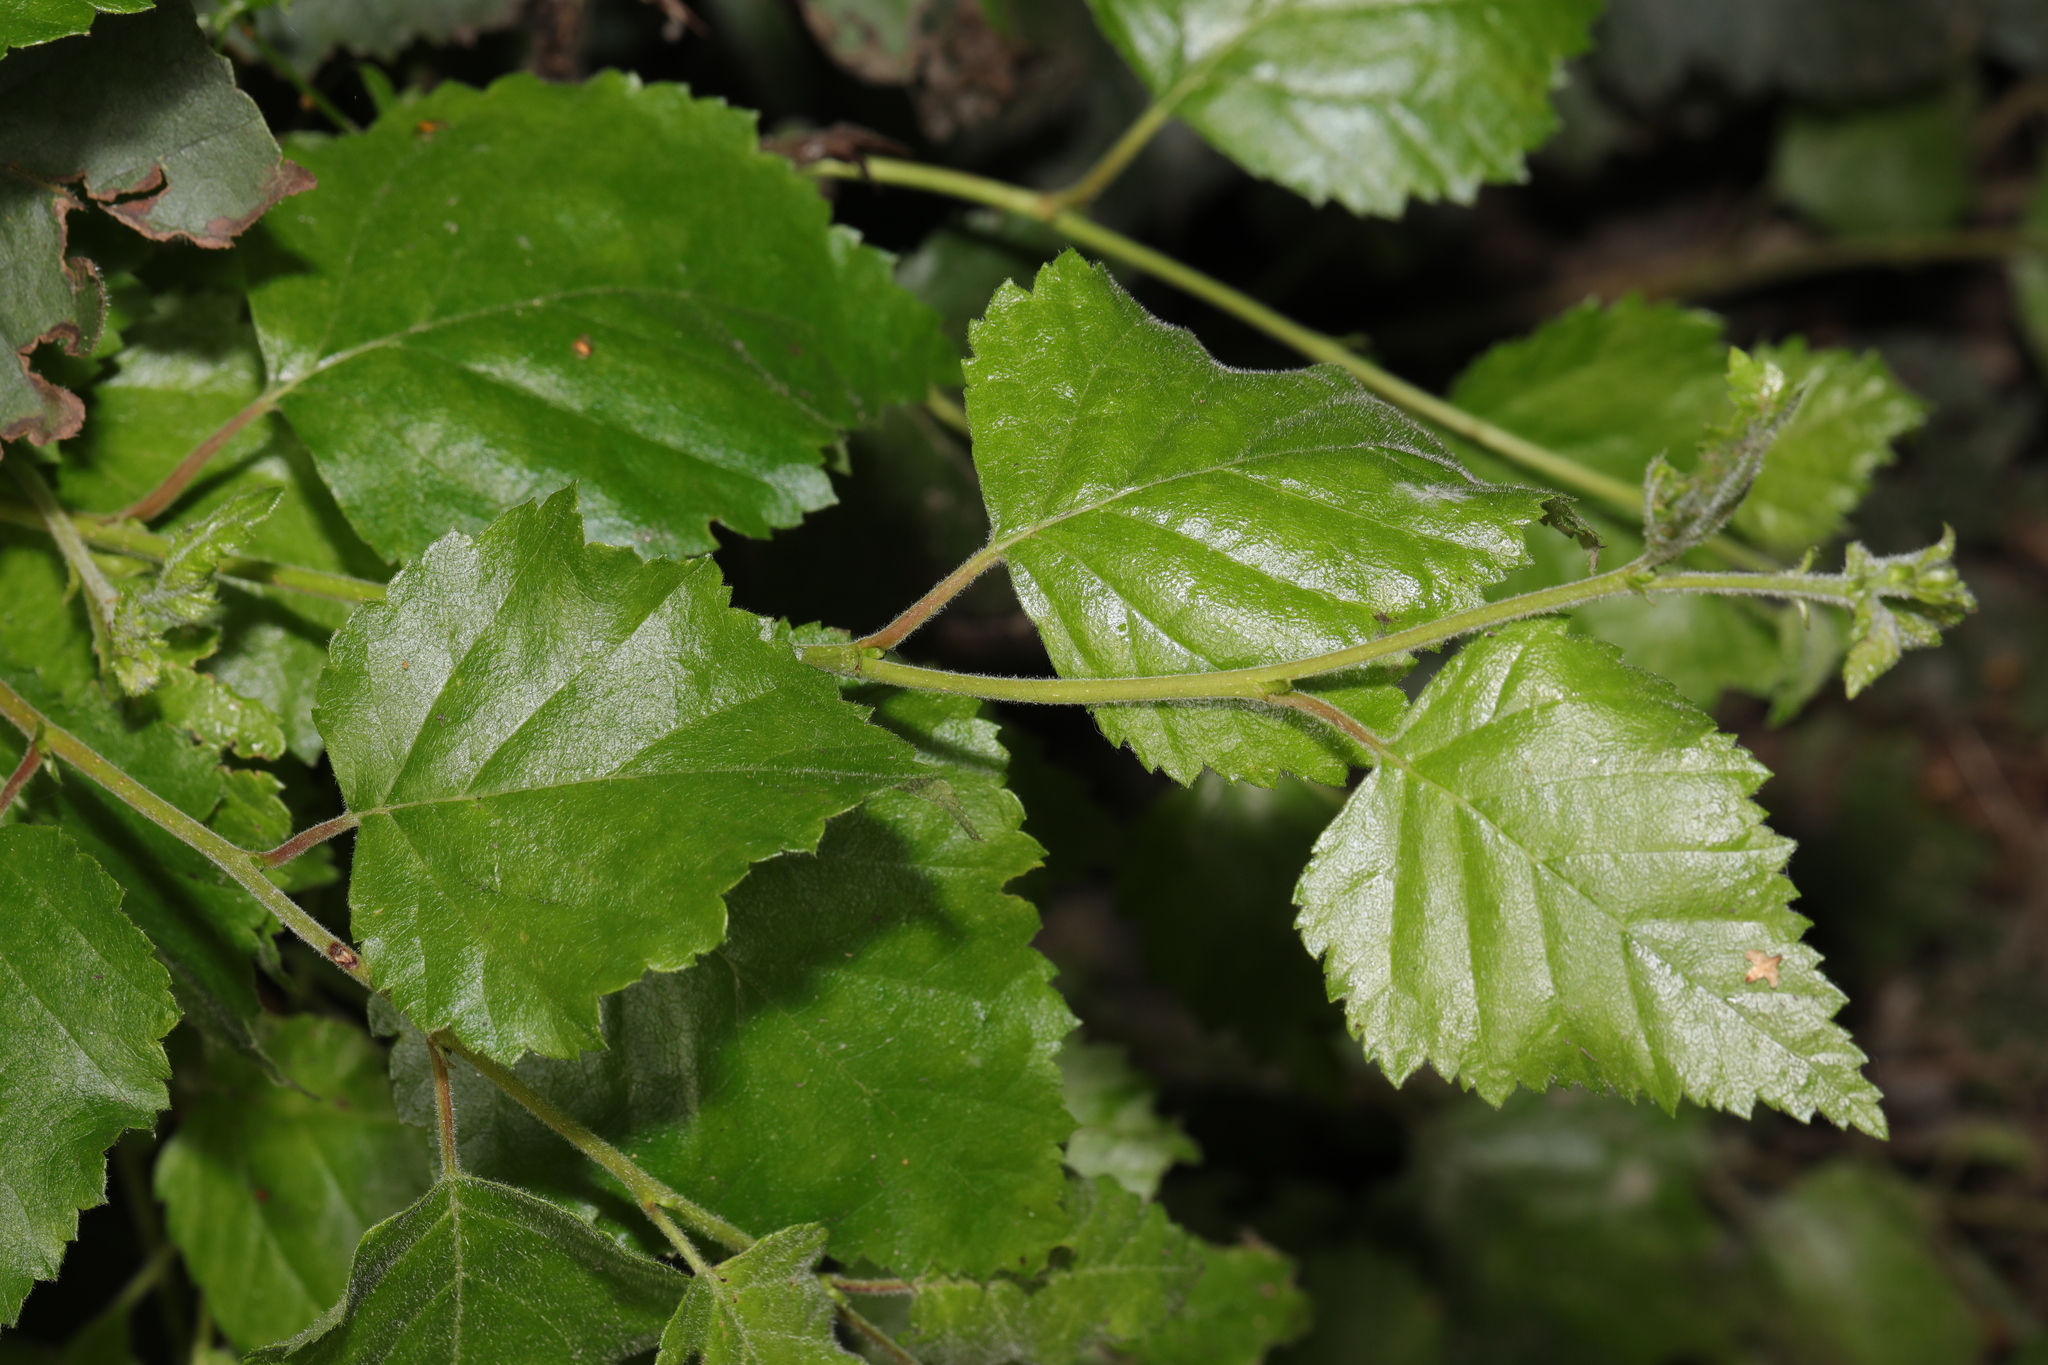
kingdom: Plantae
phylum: Tracheophyta
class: Magnoliopsida
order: Fagales
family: Betulaceae
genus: Betula
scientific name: Betula pubescens
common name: Downy birch
